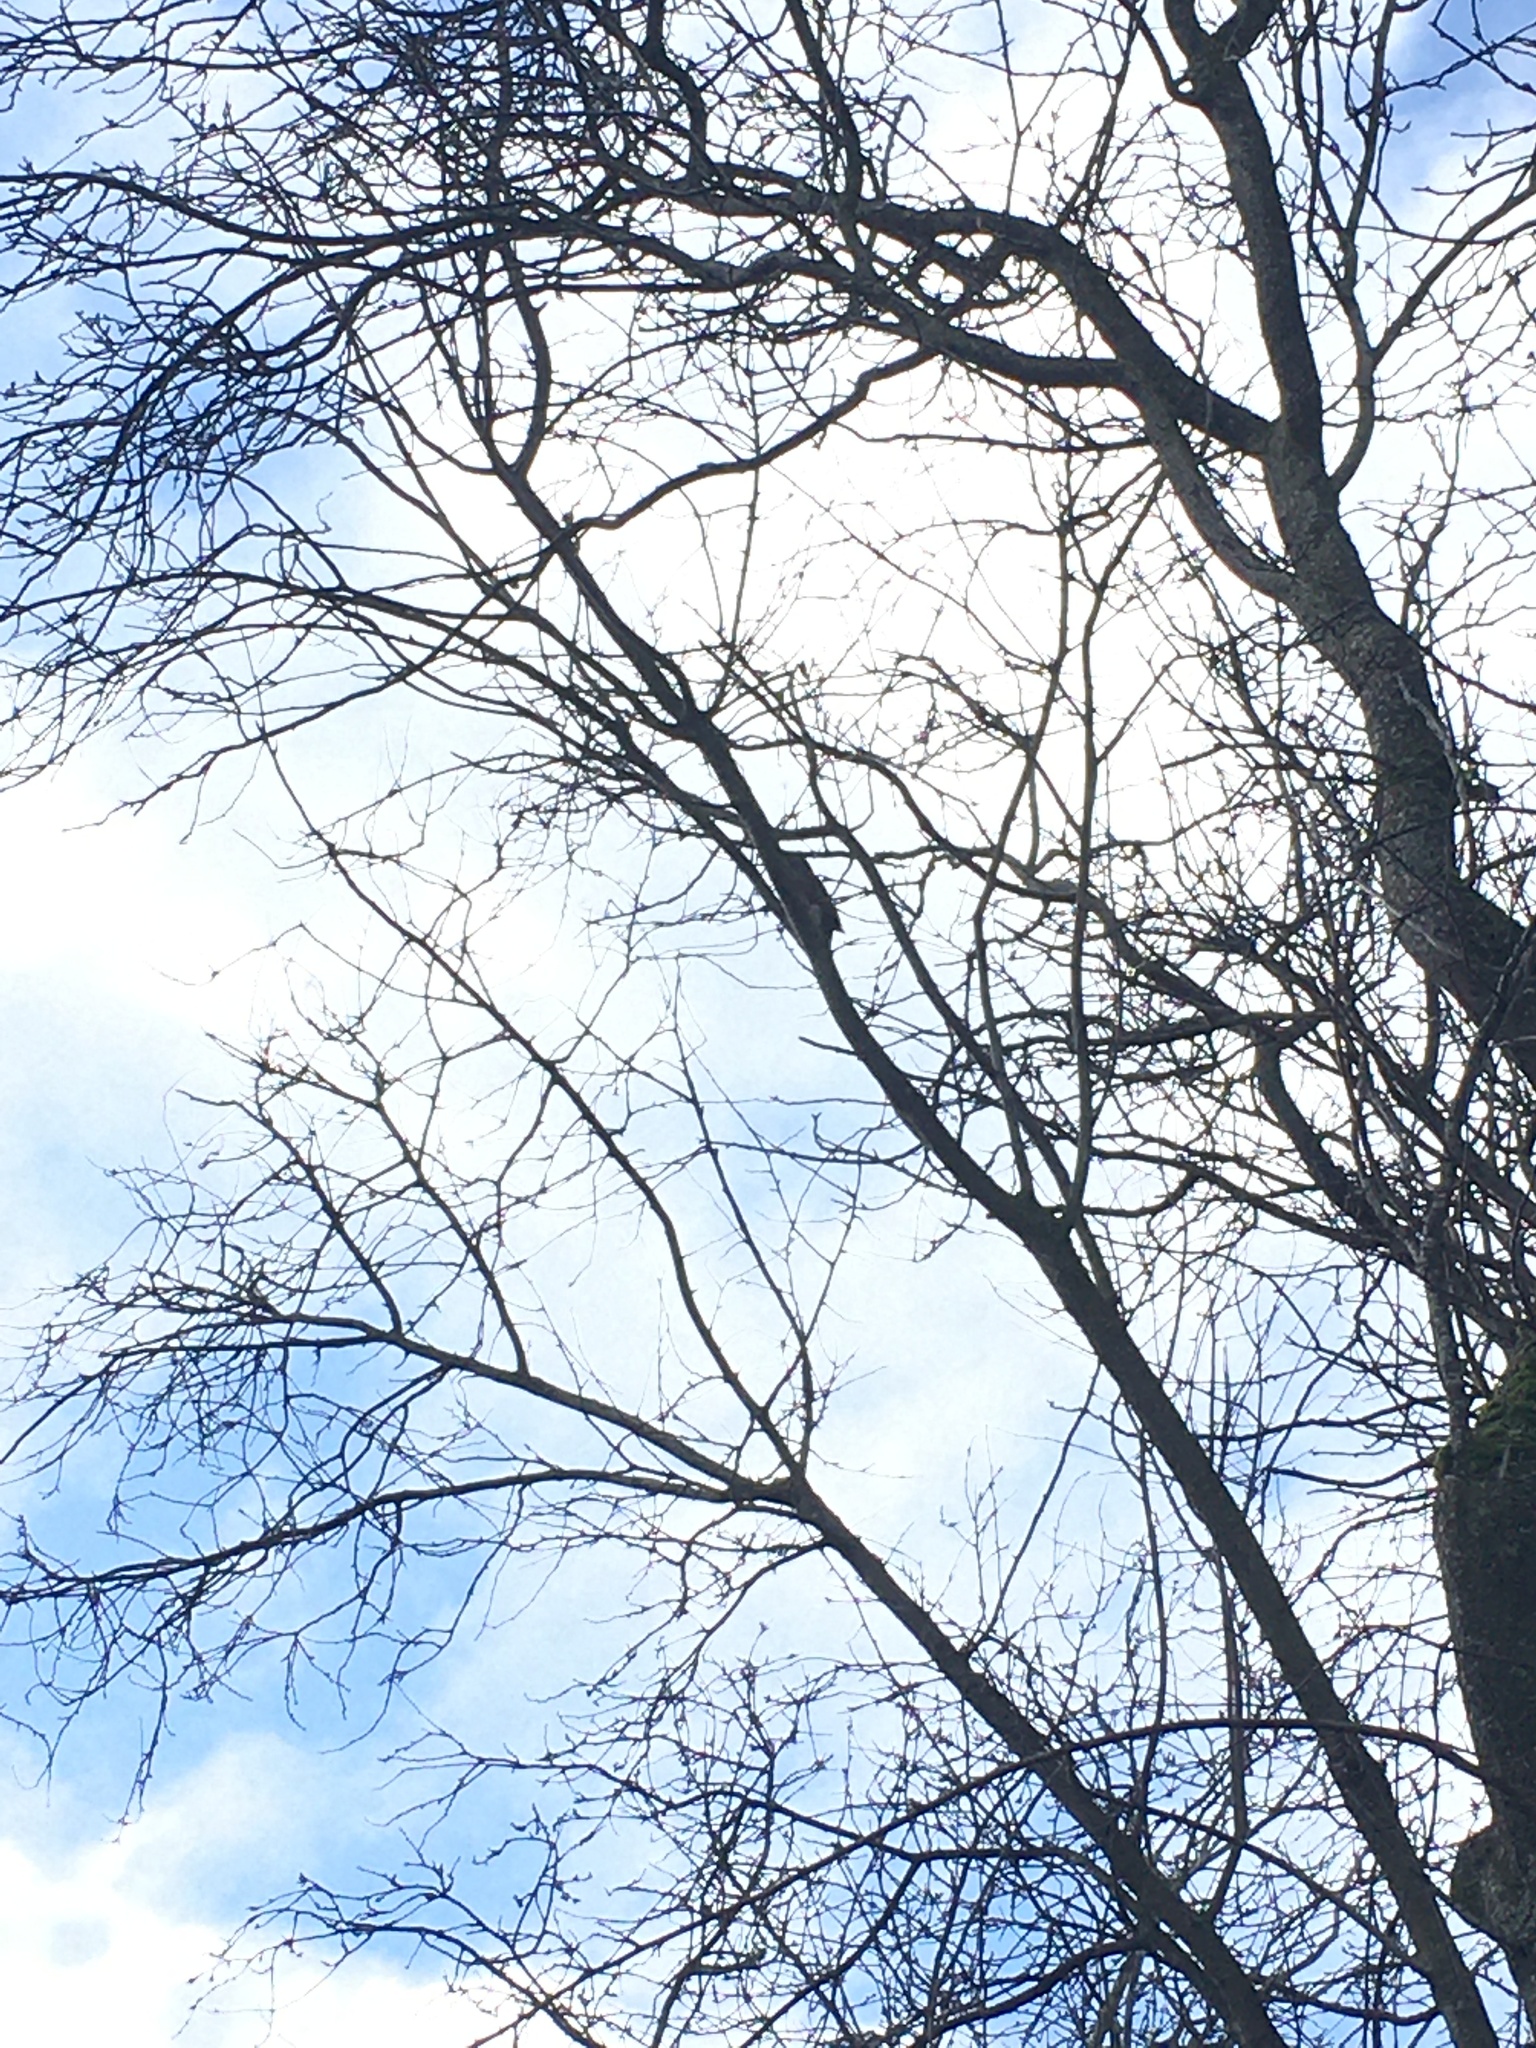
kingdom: Animalia
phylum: Chordata
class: Aves
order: Piciformes
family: Picidae
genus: Colaptes
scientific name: Colaptes auratus
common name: Northern flicker
